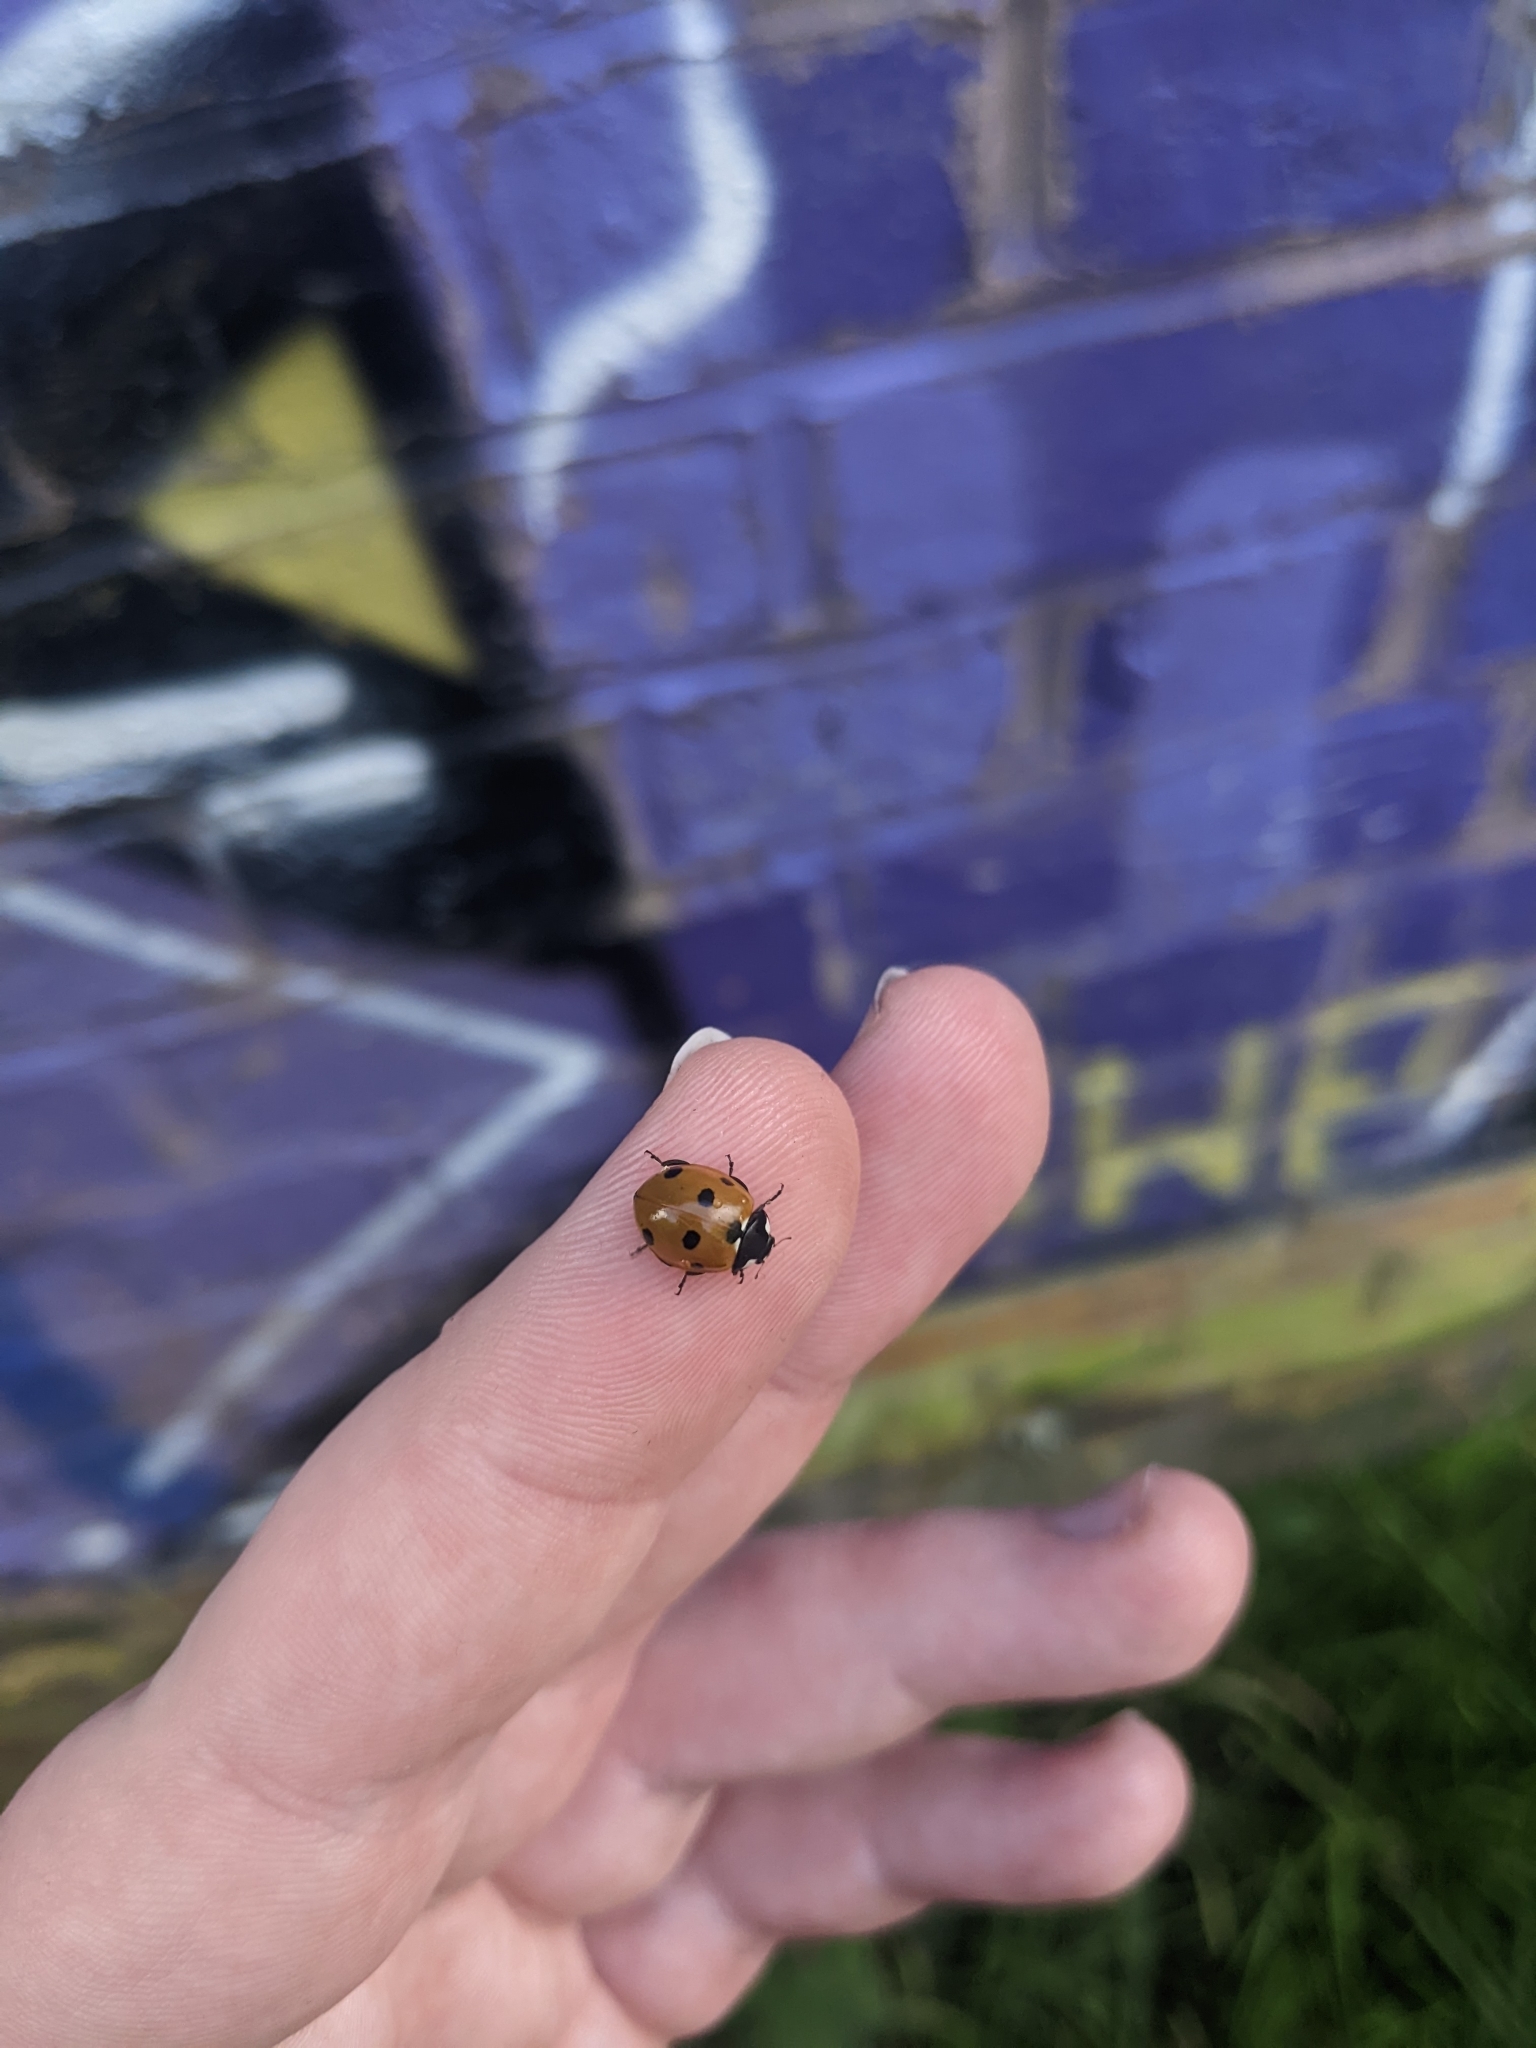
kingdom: Animalia
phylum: Arthropoda
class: Insecta
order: Coleoptera
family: Coccinellidae
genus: Coccinella
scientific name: Coccinella septempunctata
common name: Sevenspotted lady beetle
